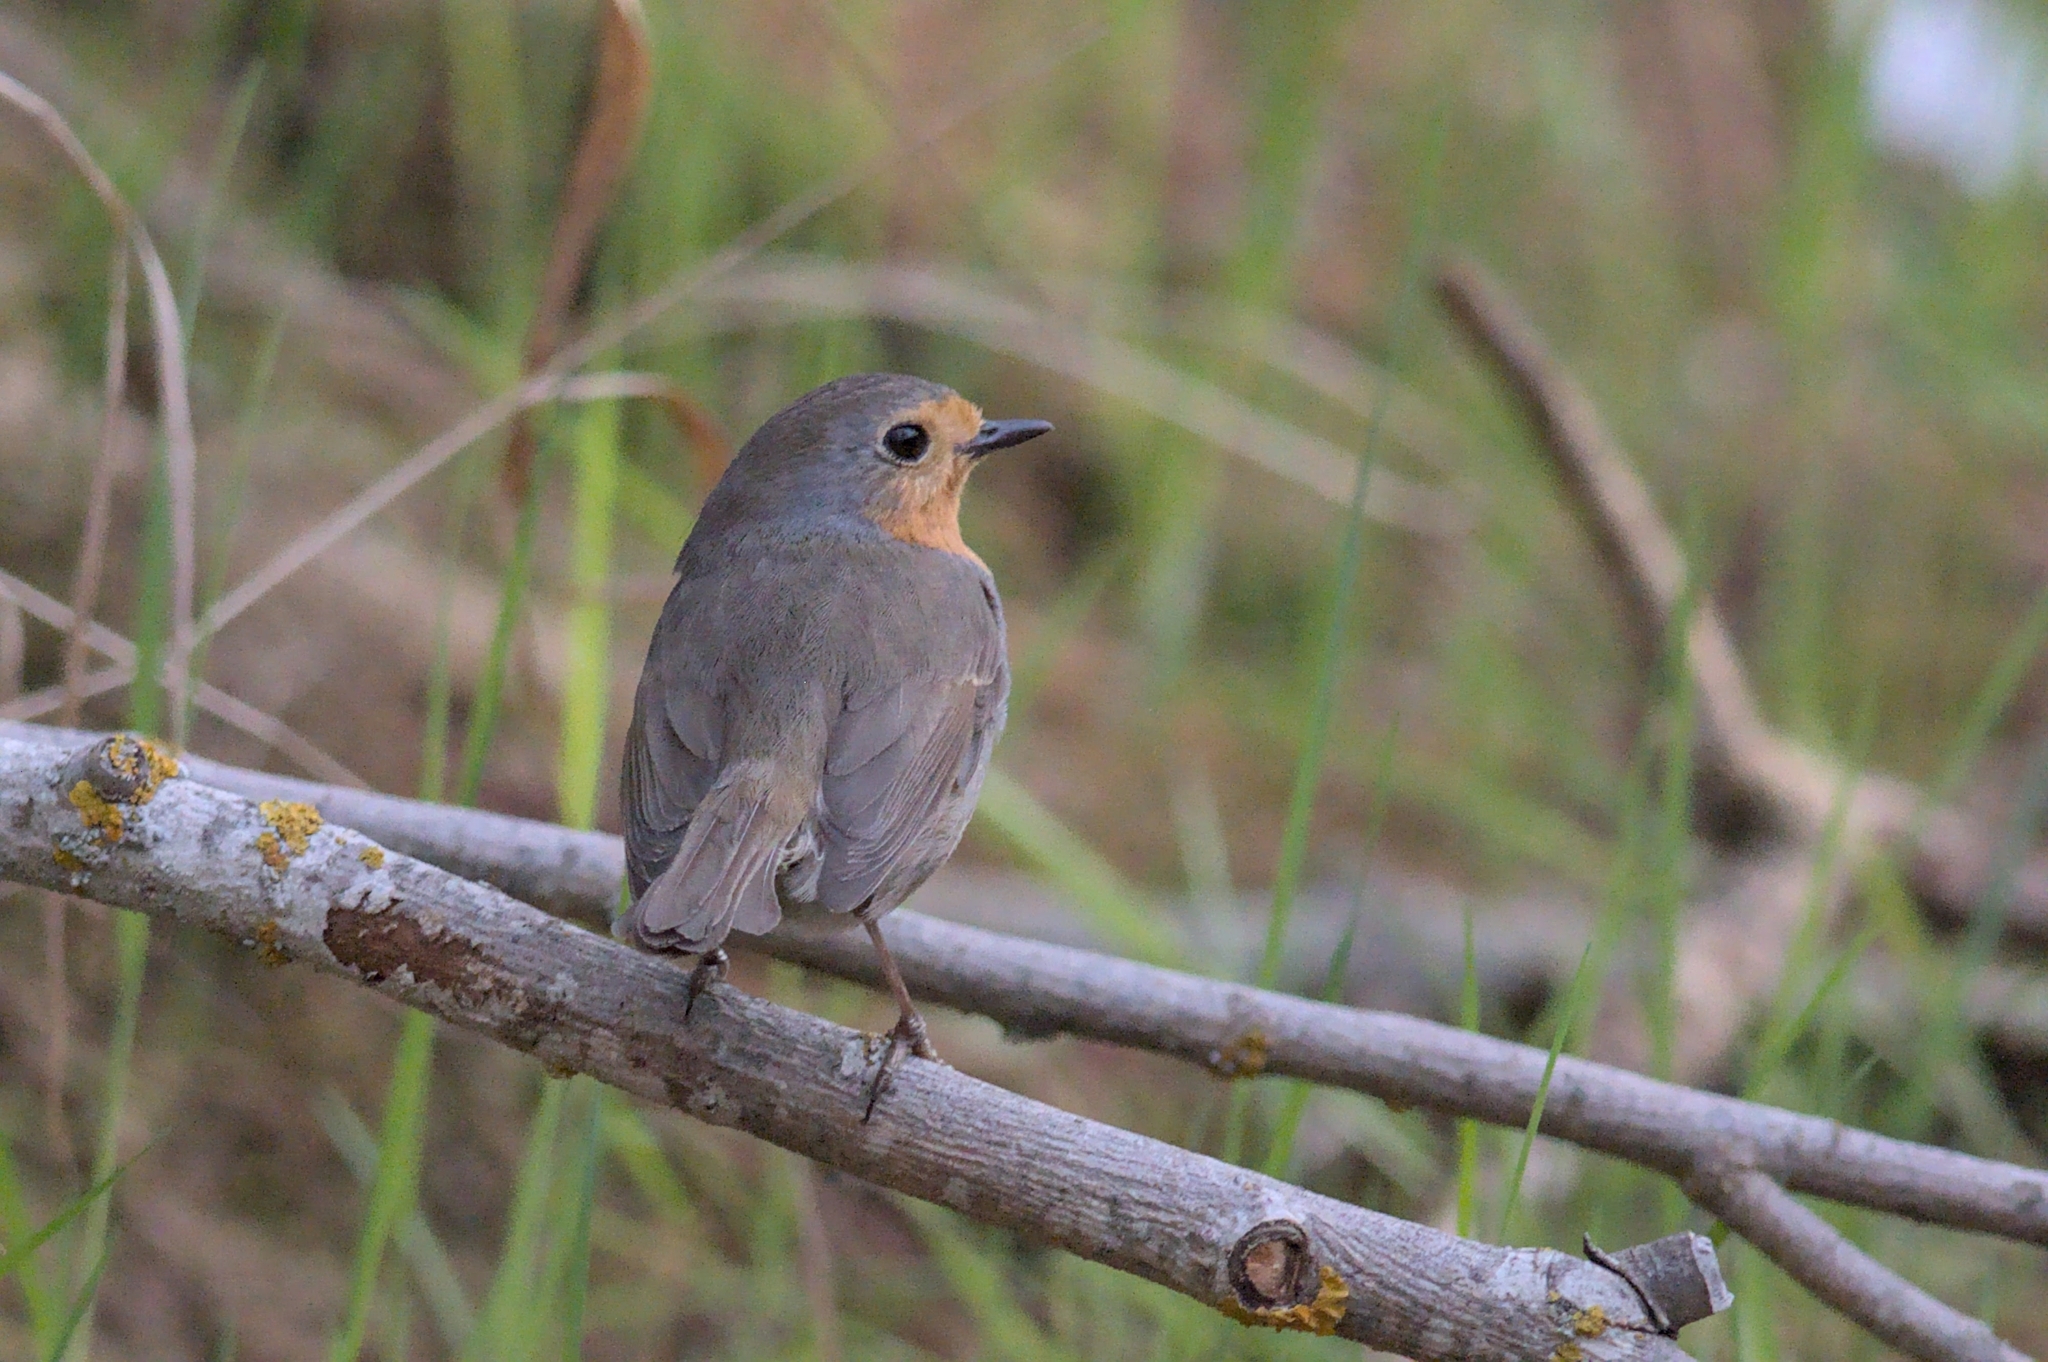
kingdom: Animalia
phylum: Chordata
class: Aves
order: Passeriformes
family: Muscicapidae
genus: Erithacus
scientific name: Erithacus rubecula
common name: European robin
